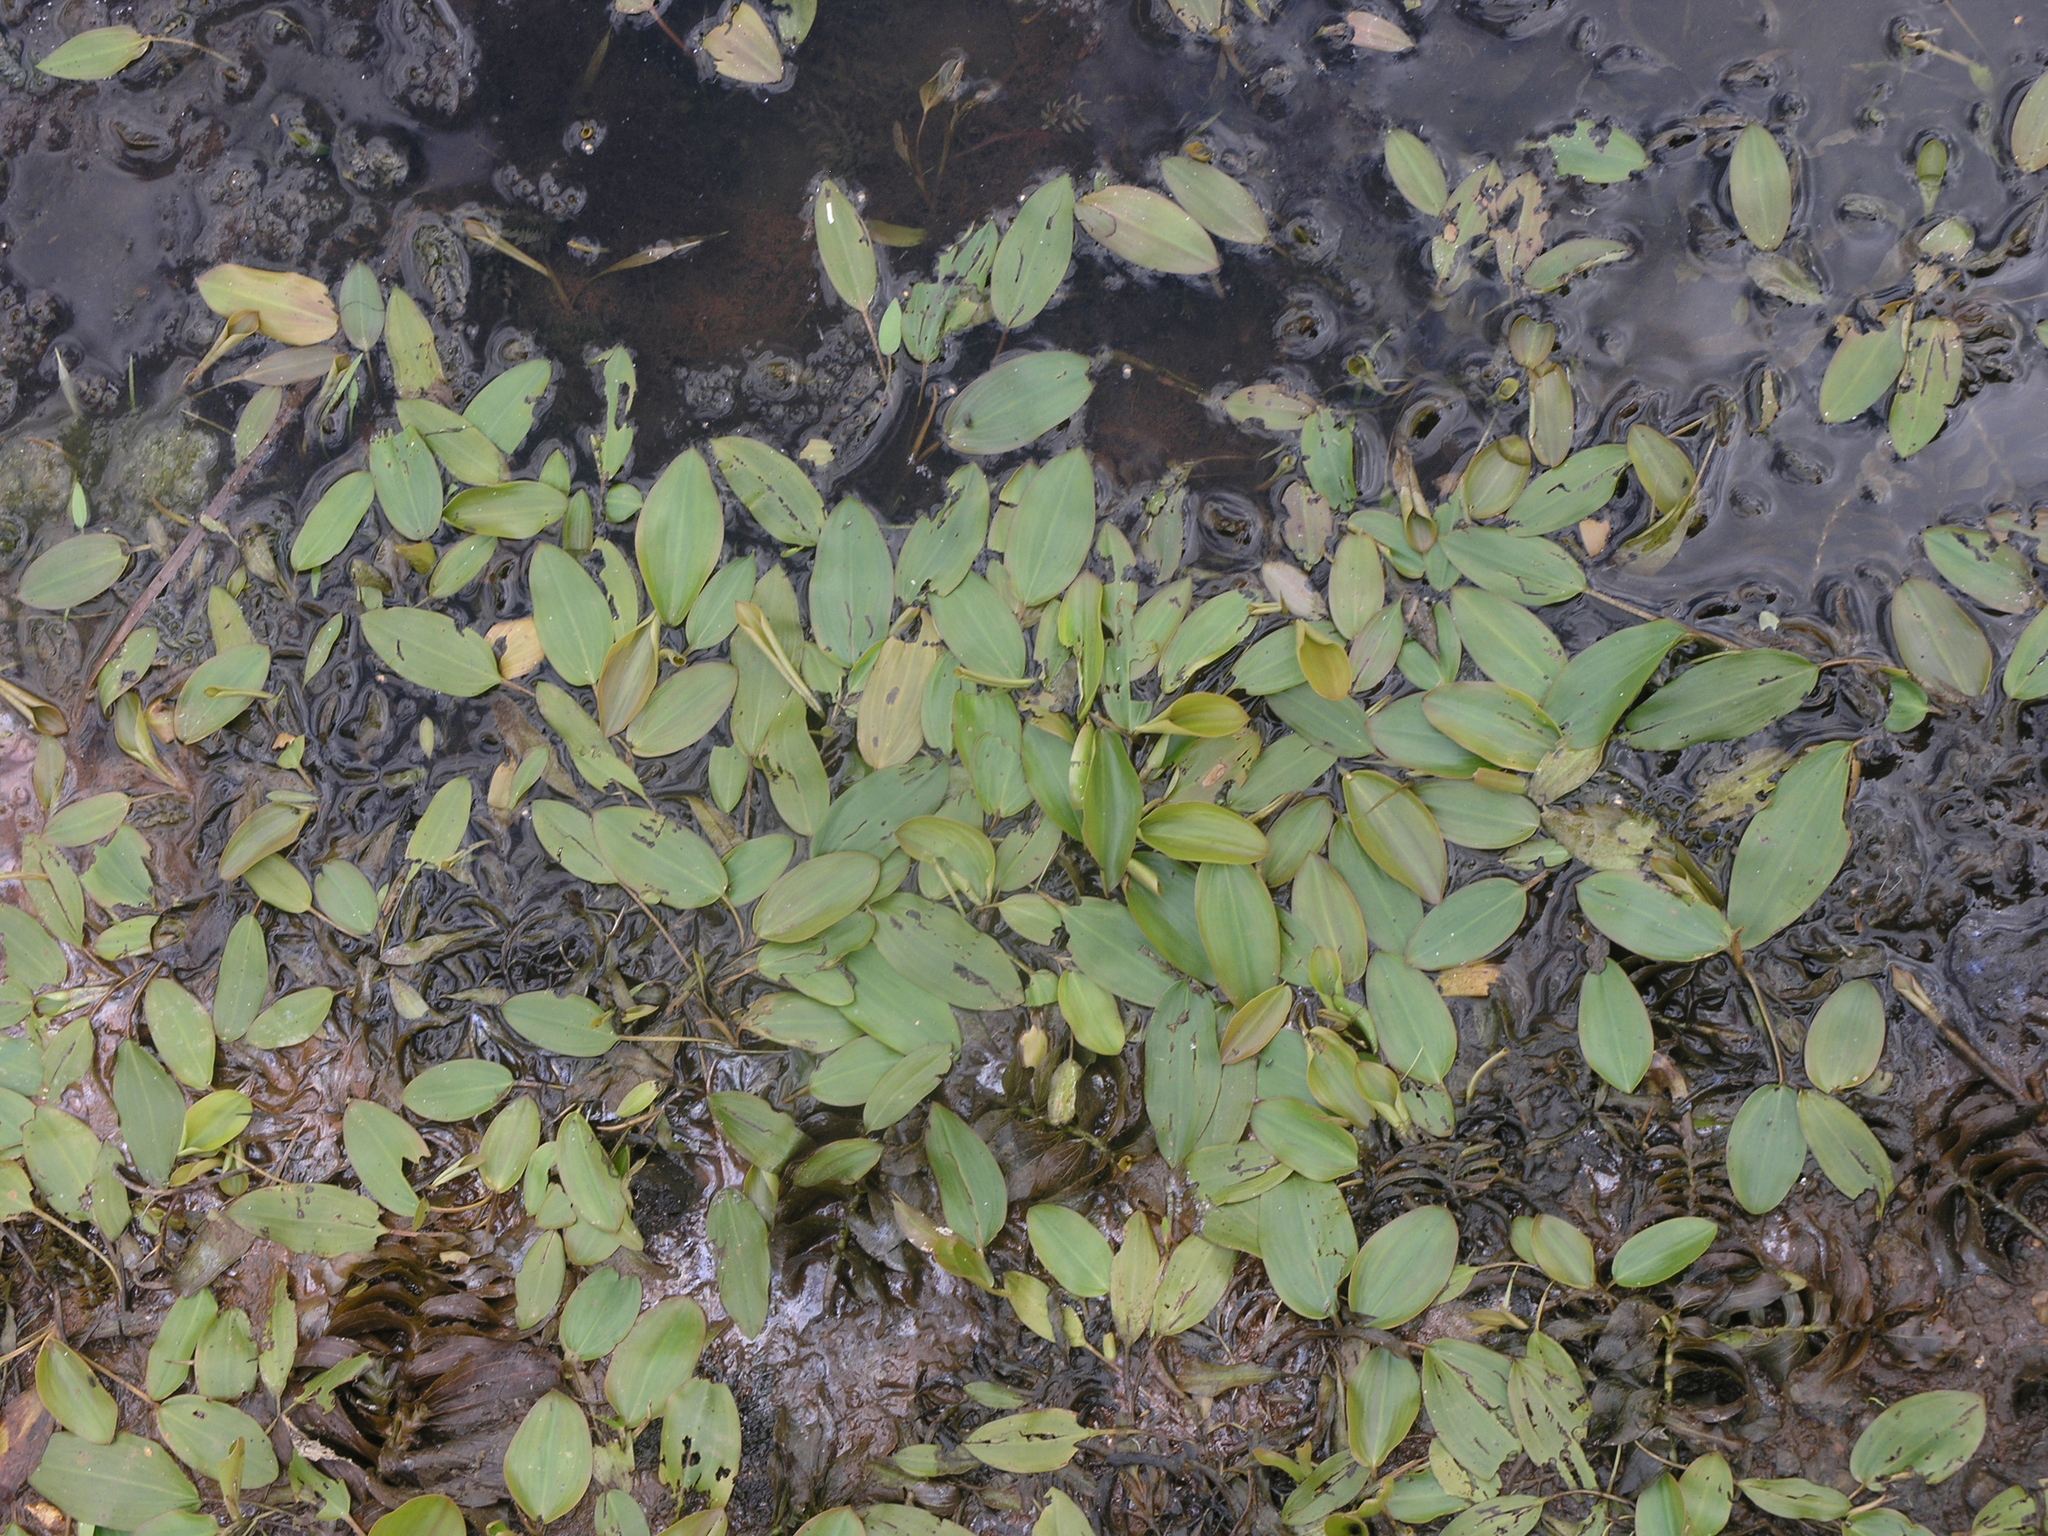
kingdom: Plantae
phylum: Tracheophyta
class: Liliopsida
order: Alismatales
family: Potamogetonaceae
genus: Potamogeton
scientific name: Potamogeton natans
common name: Broad-leaved pondweed
